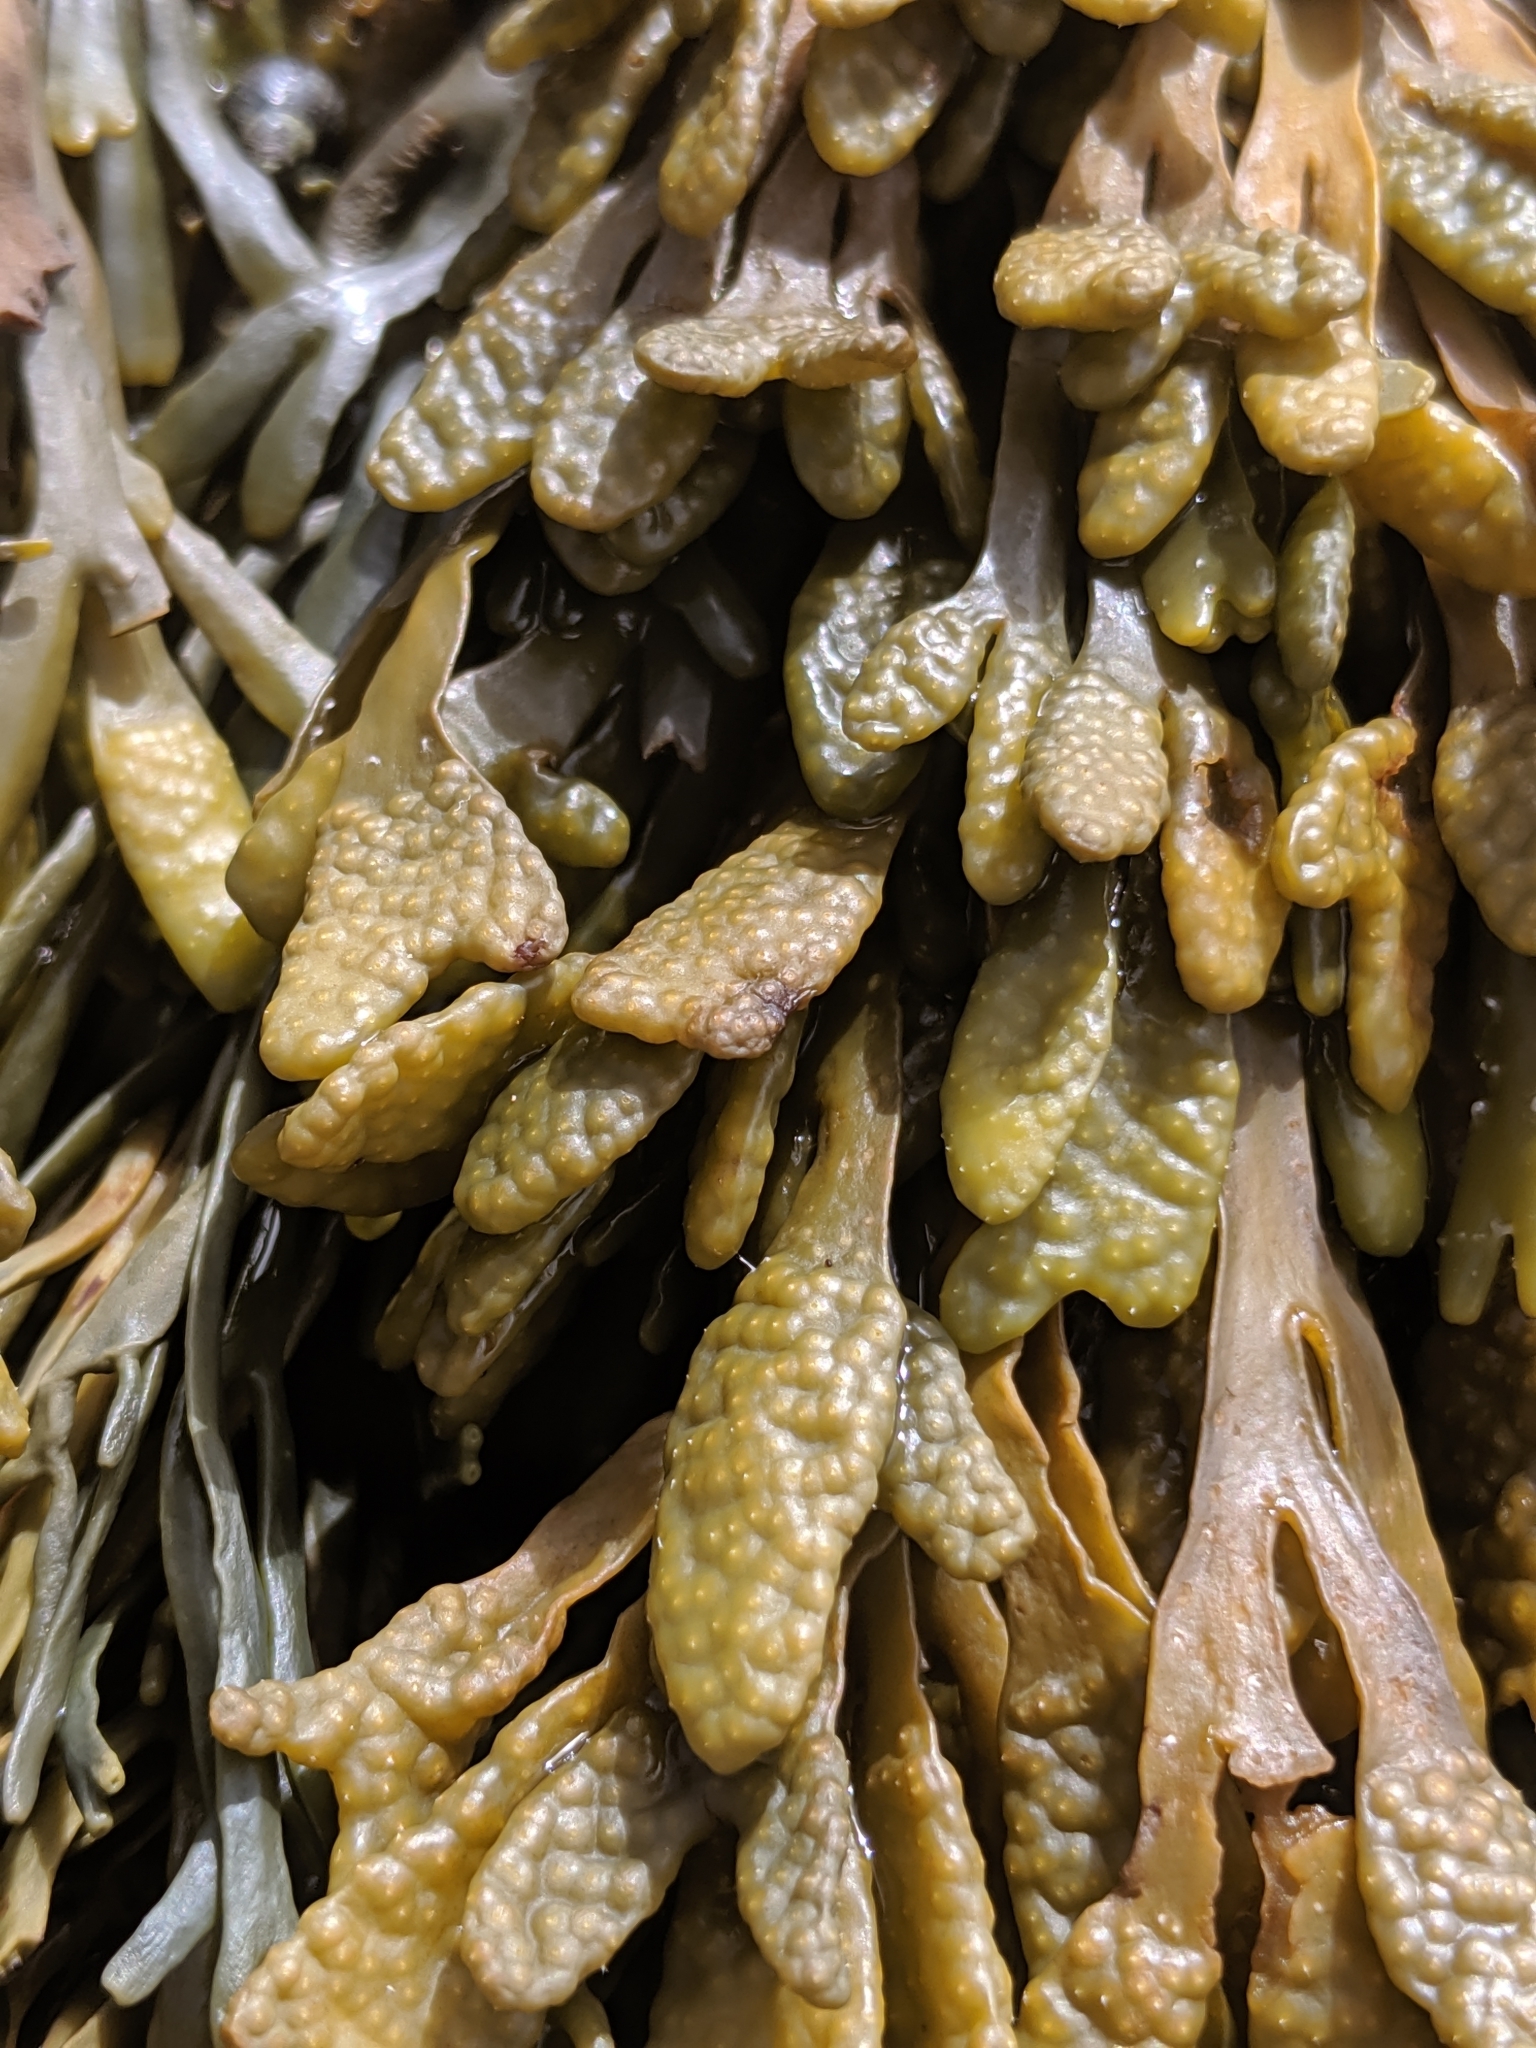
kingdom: Chromista
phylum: Ochrophyta
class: Phaeophyceae
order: Fucales
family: Fucaceae
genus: Pelvetiopsis
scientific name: Pelvetiopsis limitata
